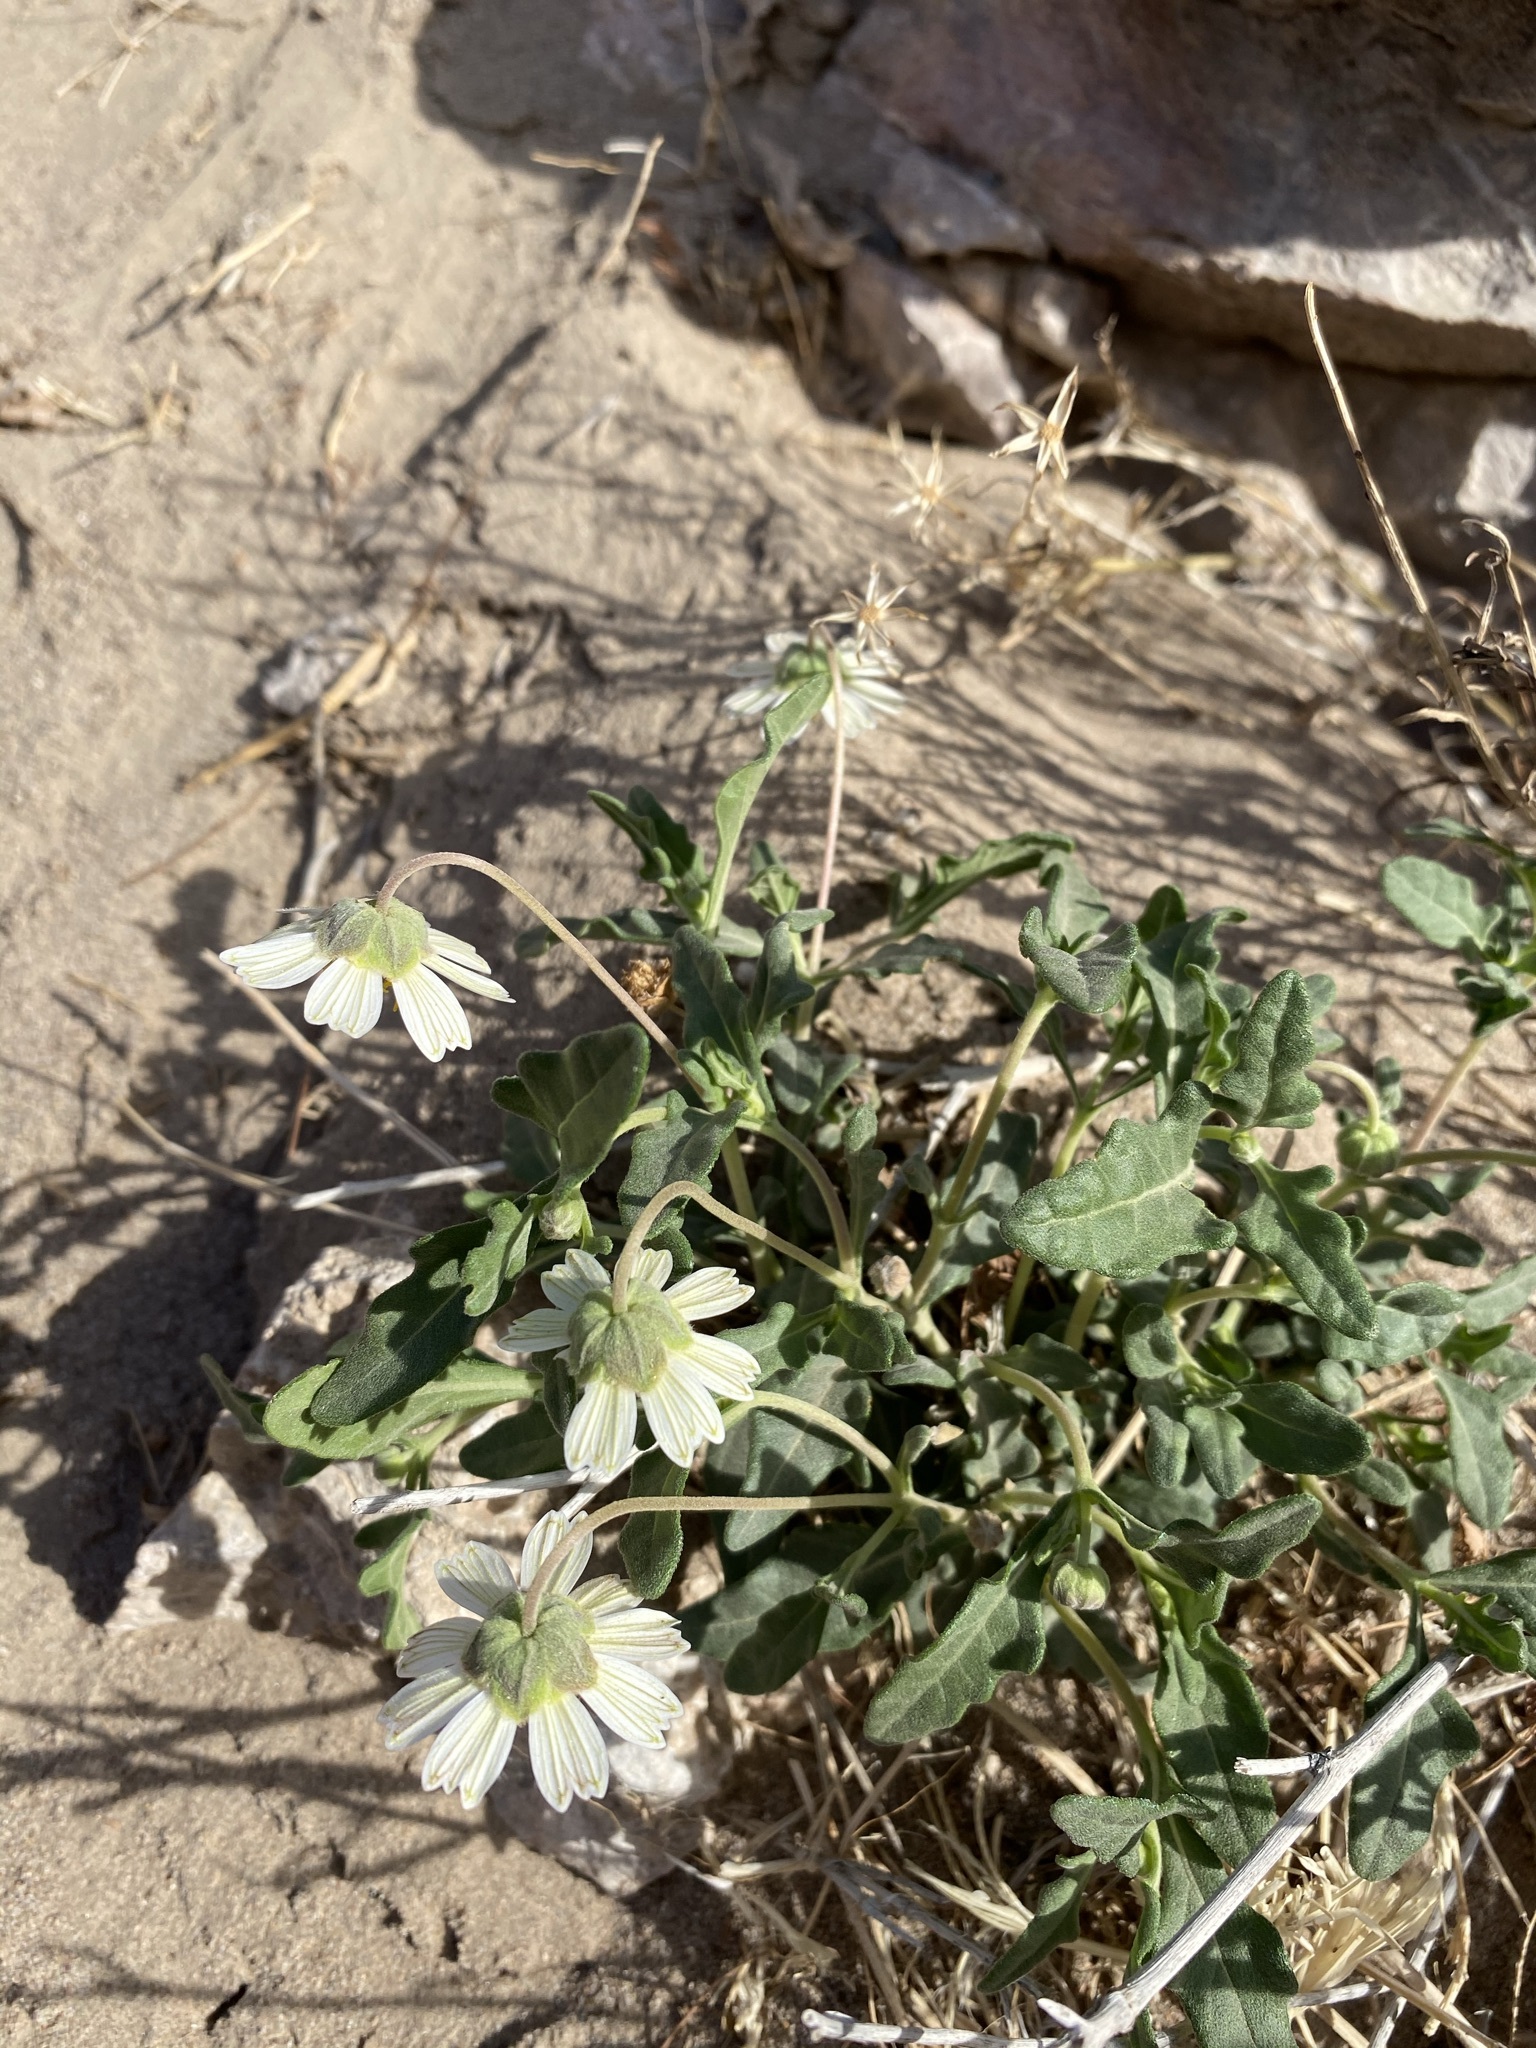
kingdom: Plantae
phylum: Tracheophyta
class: Magnoliopsida
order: Asterales
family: Asteraceae
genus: Melampodium
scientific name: Melampodium leucanthum
